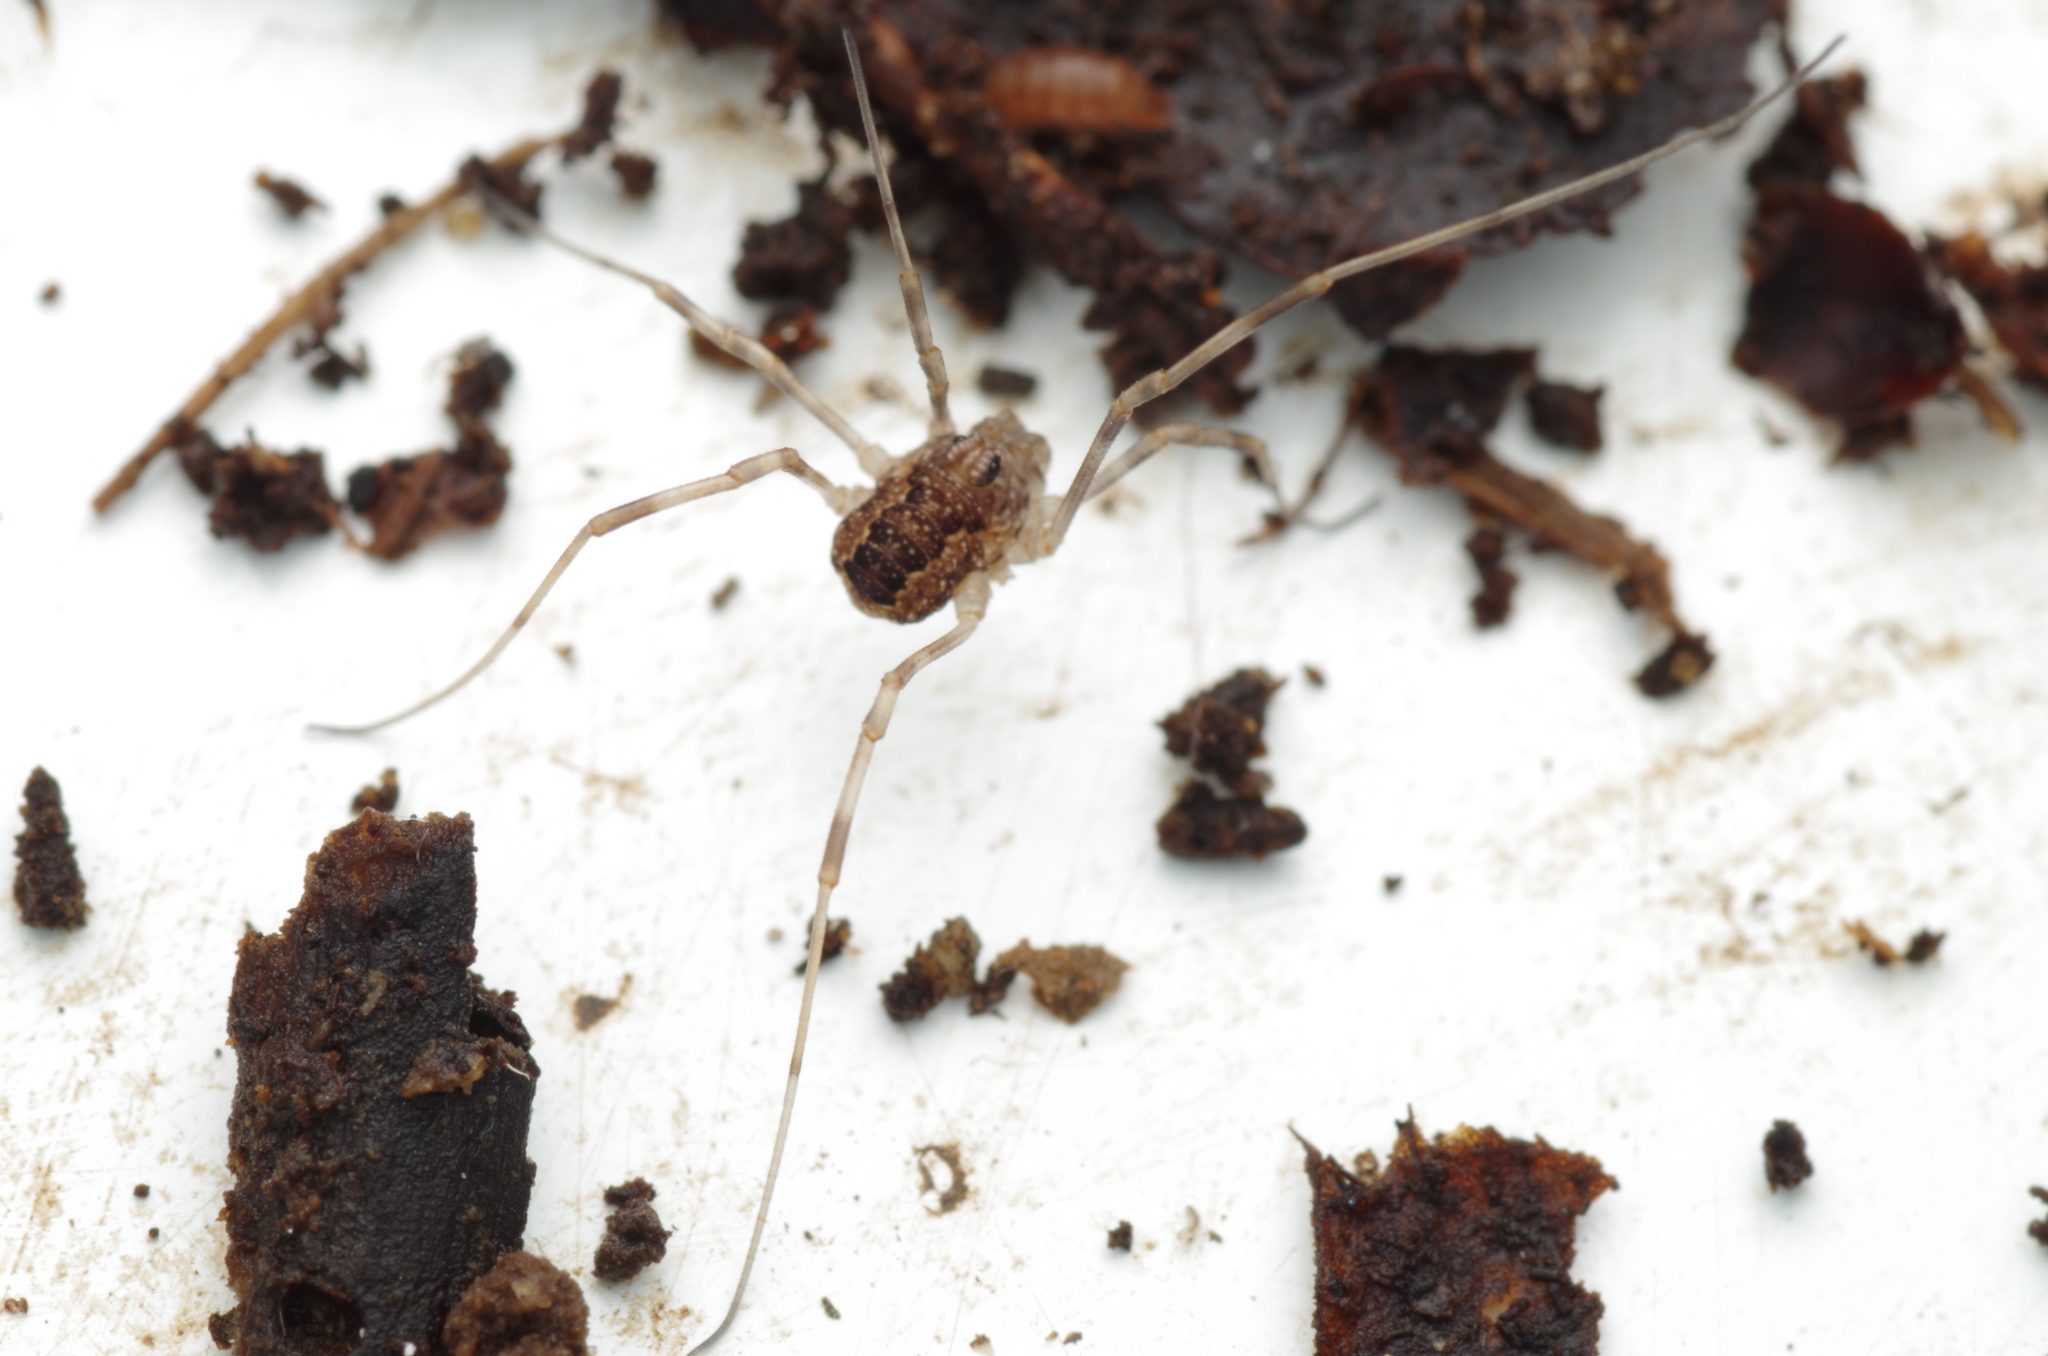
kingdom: Animalia
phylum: Arthropoda
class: Arachnida
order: Opiliones
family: Phalangiidae
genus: Rilaena
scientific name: Rilaena triangularis
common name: Spring harvestman
